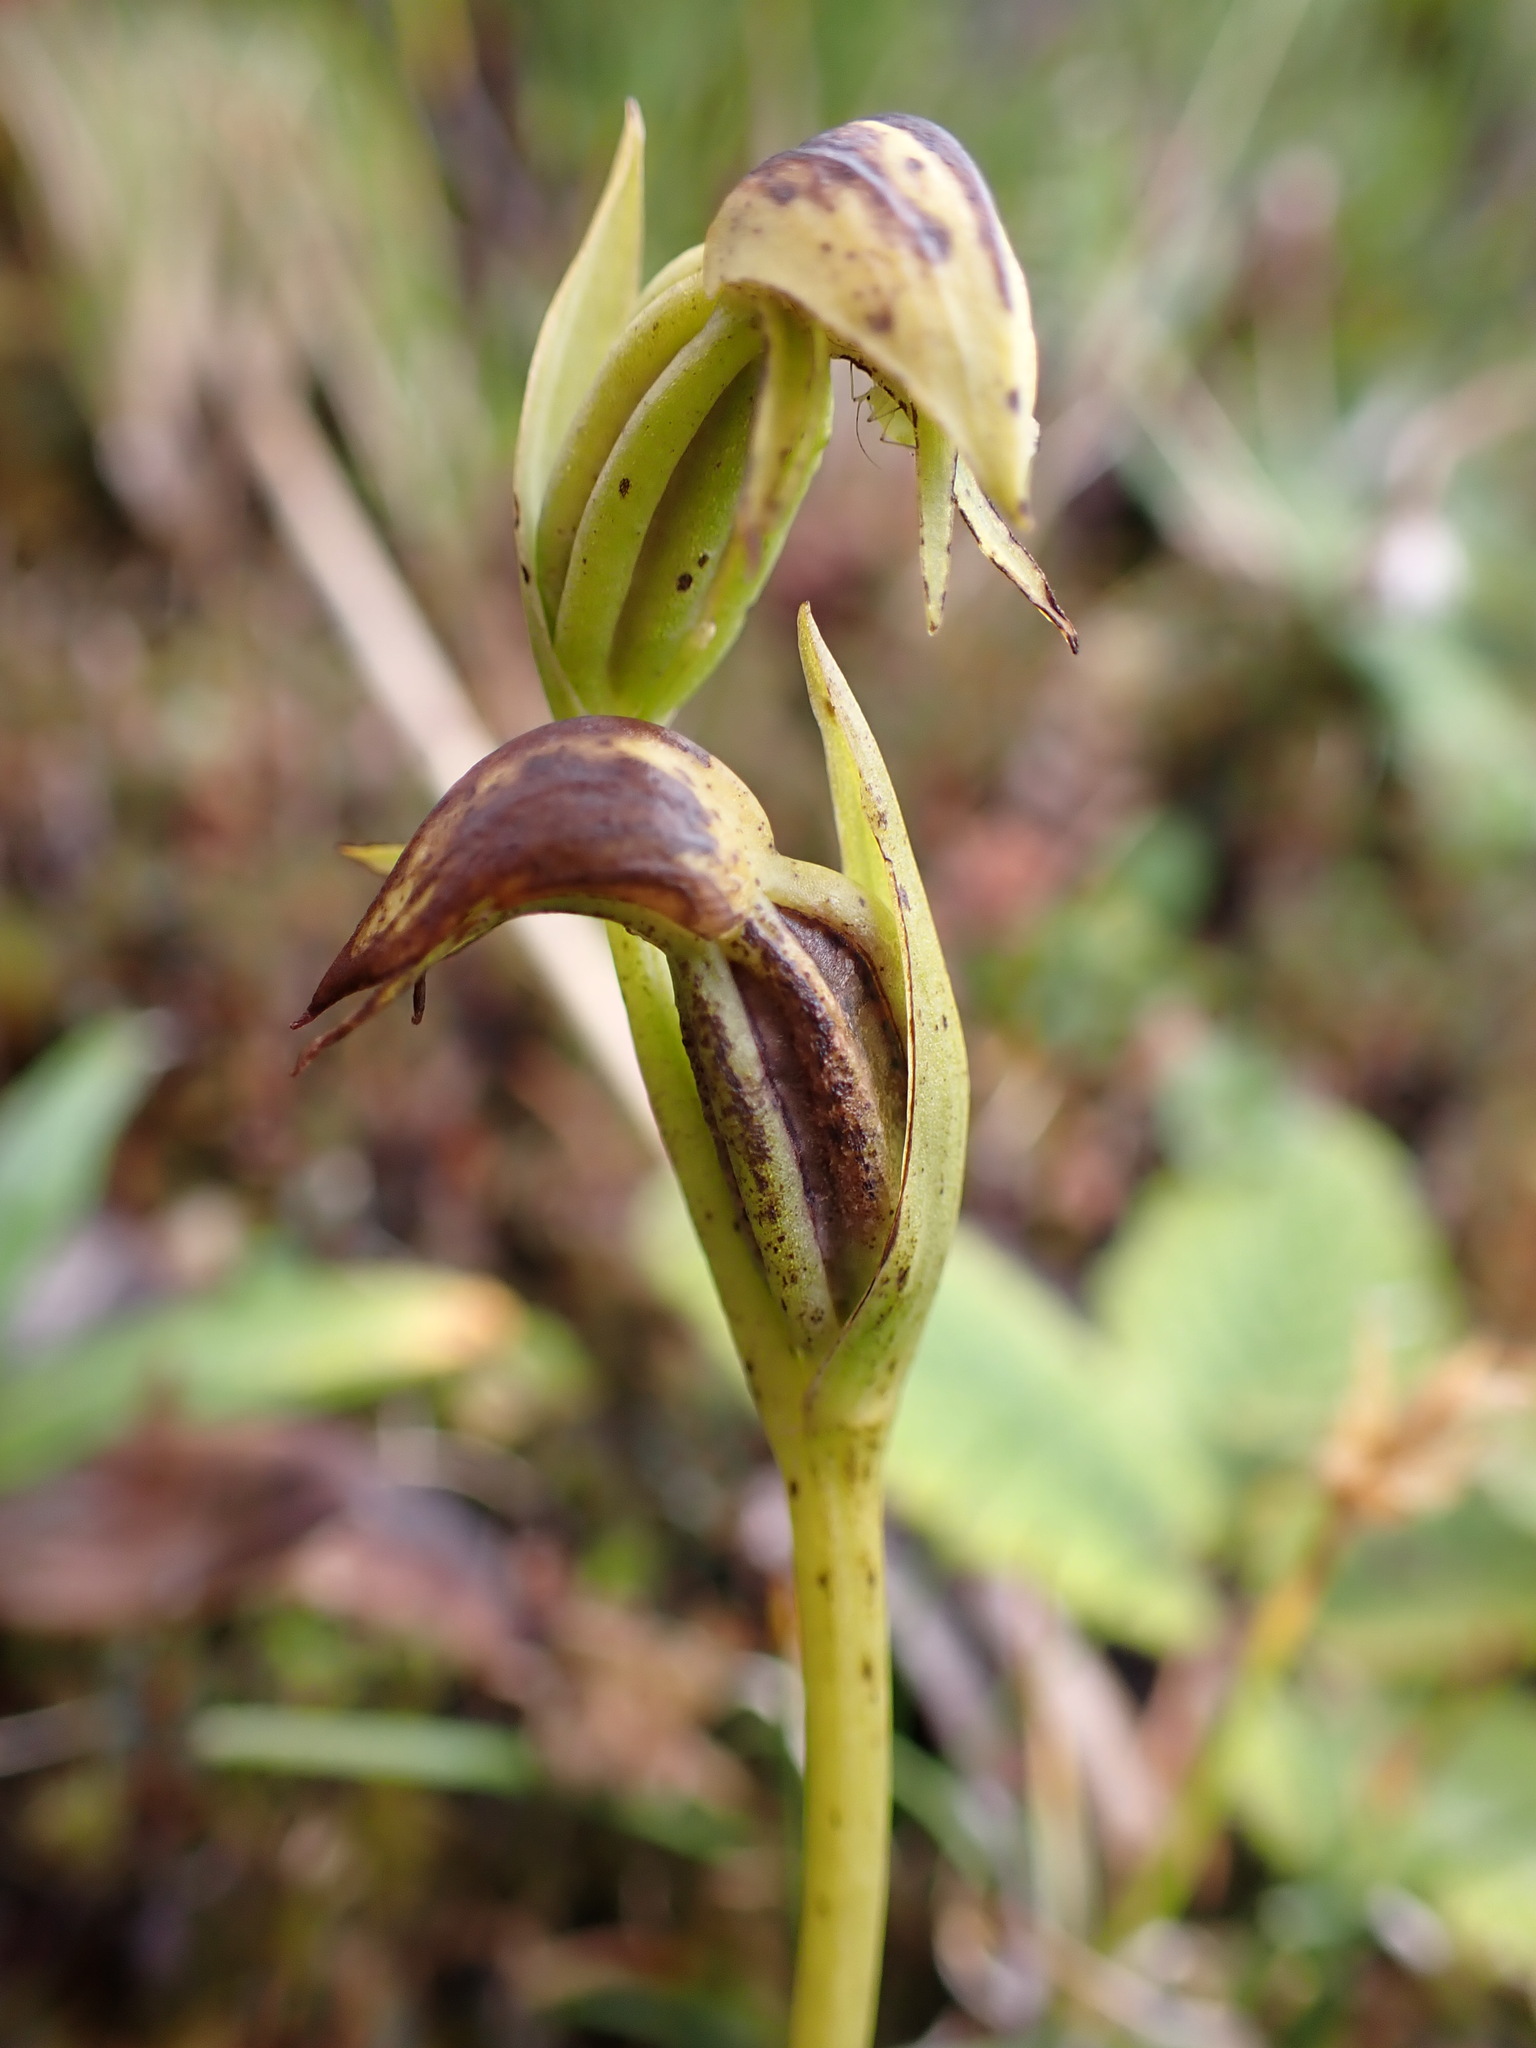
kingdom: Plantae
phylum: Tracheophyta
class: Liliopsida
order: Asparagales
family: Orchidaceae
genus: Waireia
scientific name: Waireia stenopetala
